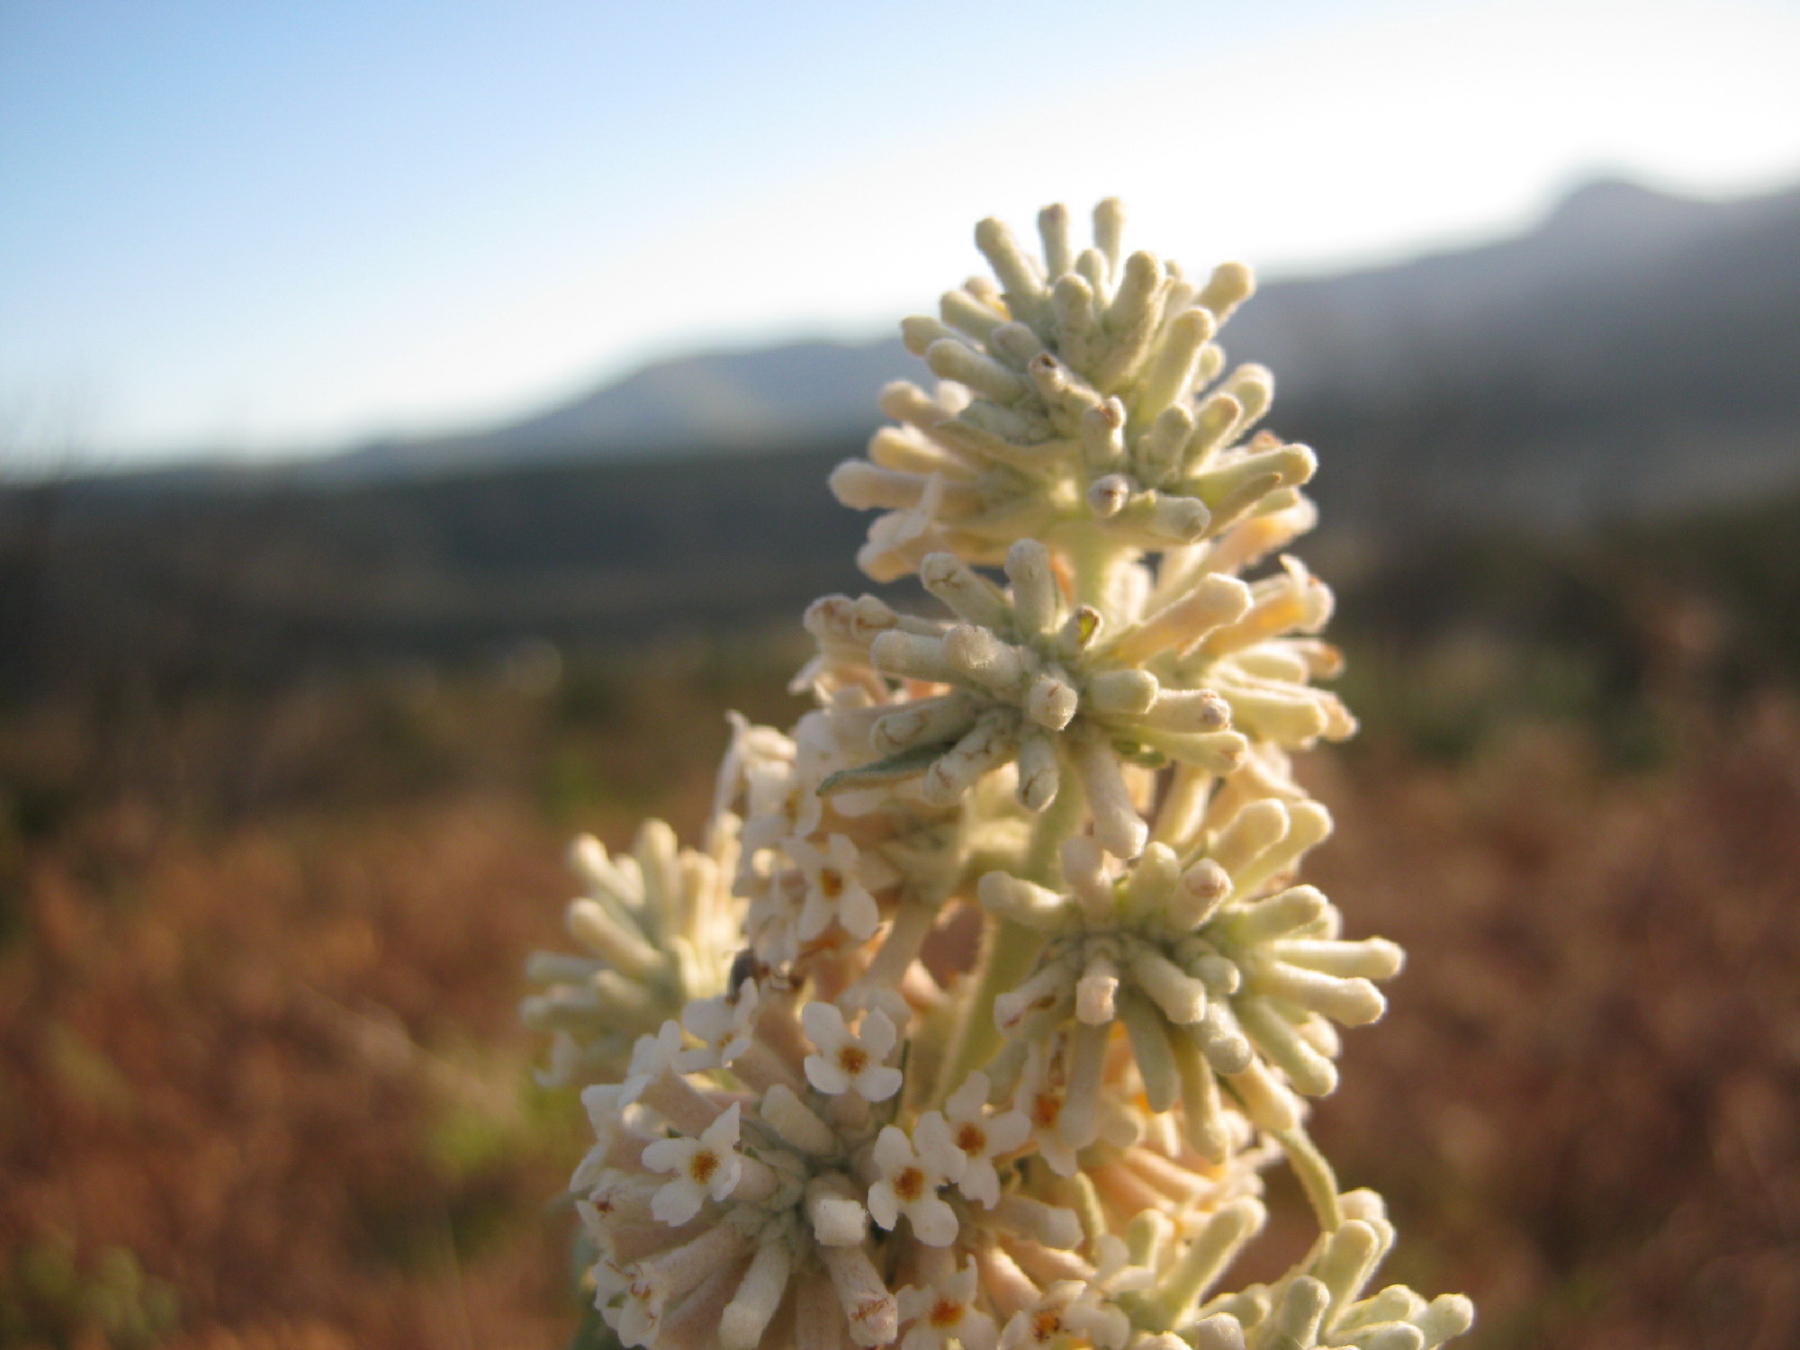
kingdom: Plantae
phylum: Tracheophyta
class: Magnoliopsida
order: Lamiales
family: Scrophulariaceae
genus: Buddleja
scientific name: Buddleja salviifolia
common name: Sagewood
